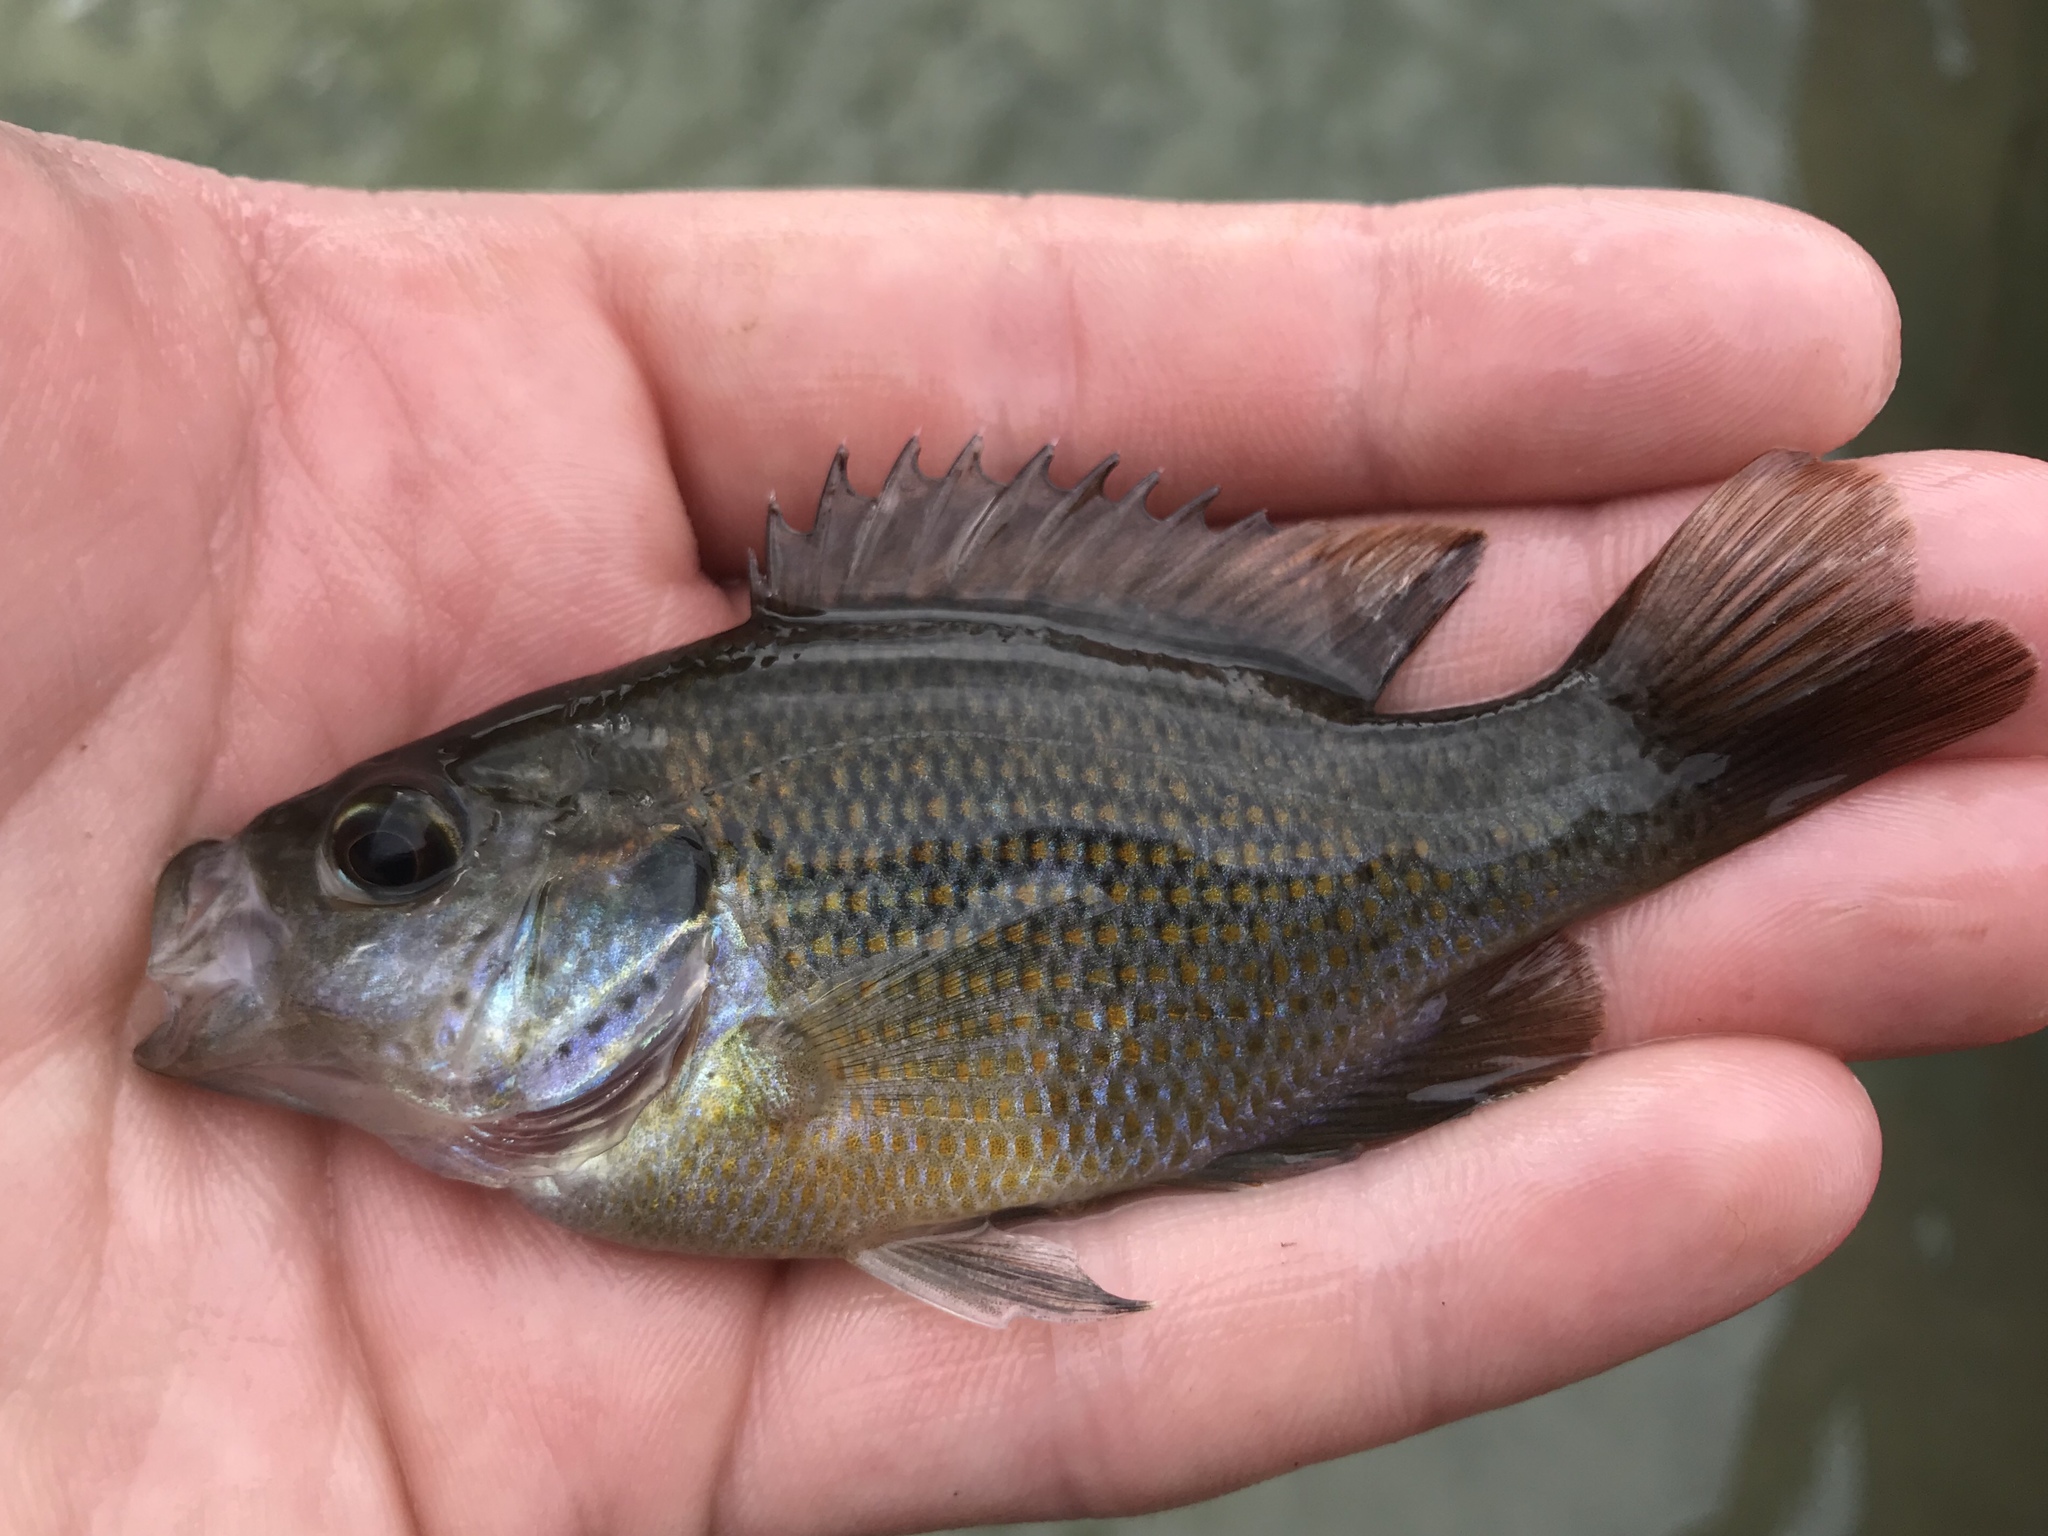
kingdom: Animalia
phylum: Chordata
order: Perciformes
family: Centrarchidae
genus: Lepomis
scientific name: Lepomis miniatus
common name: Redspotted sunfish
